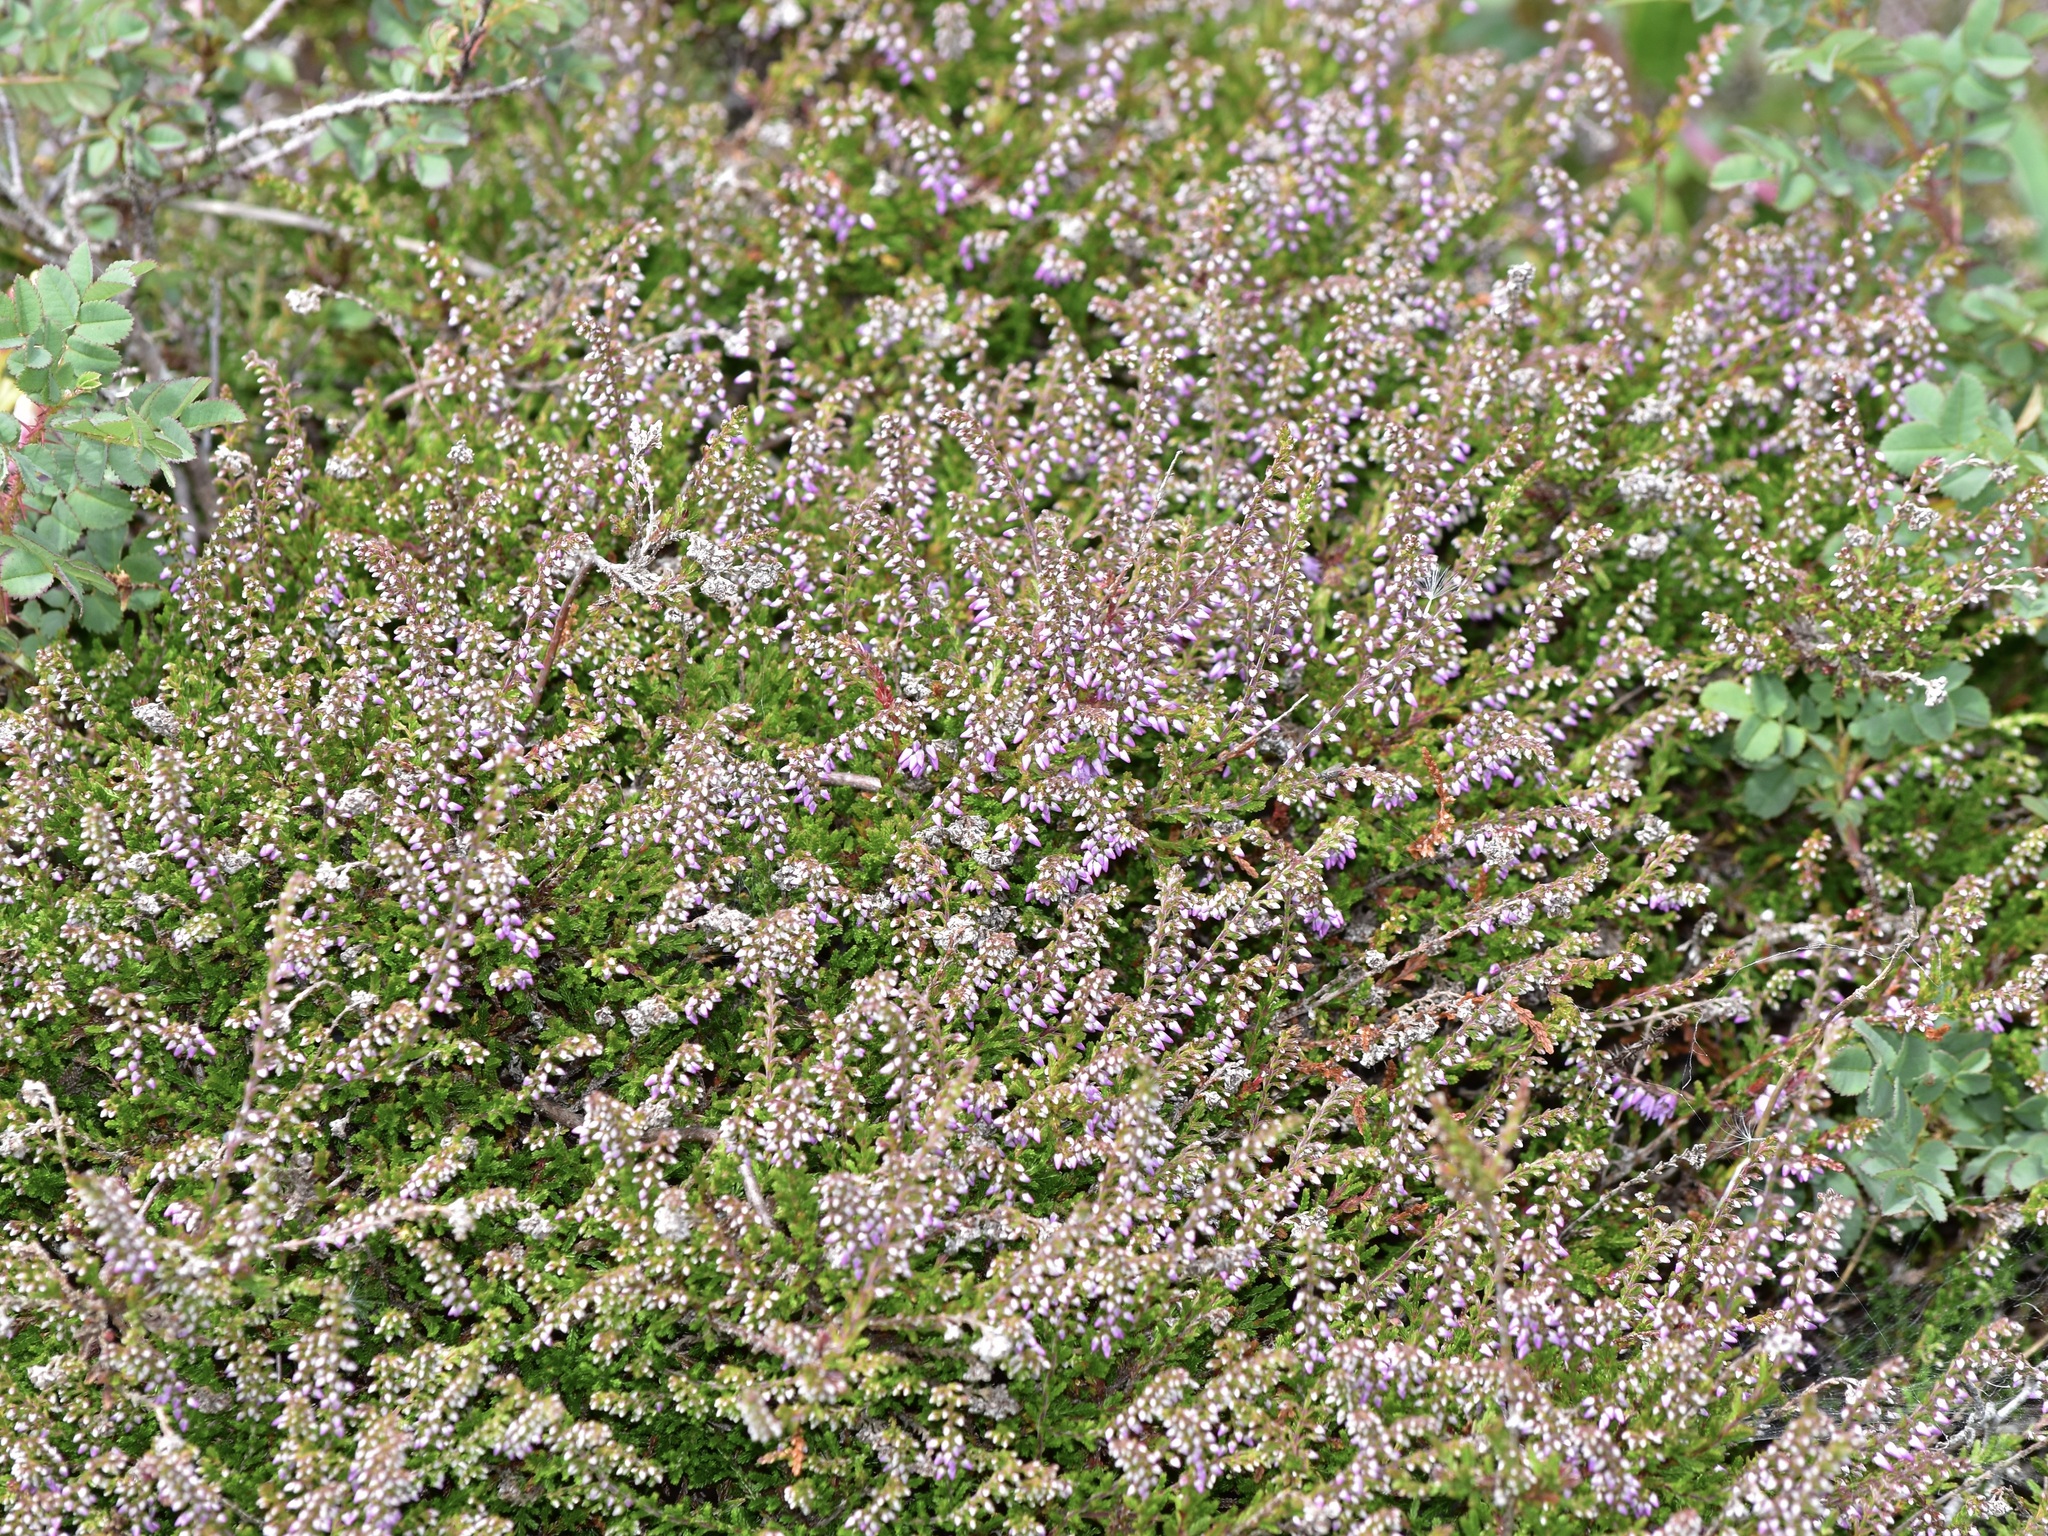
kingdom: Plantae
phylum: Tracheophyta
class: Magnoliopsida
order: Ericales
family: Ericaceae
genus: Calluna
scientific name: Calluna vulgaris
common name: Heather
